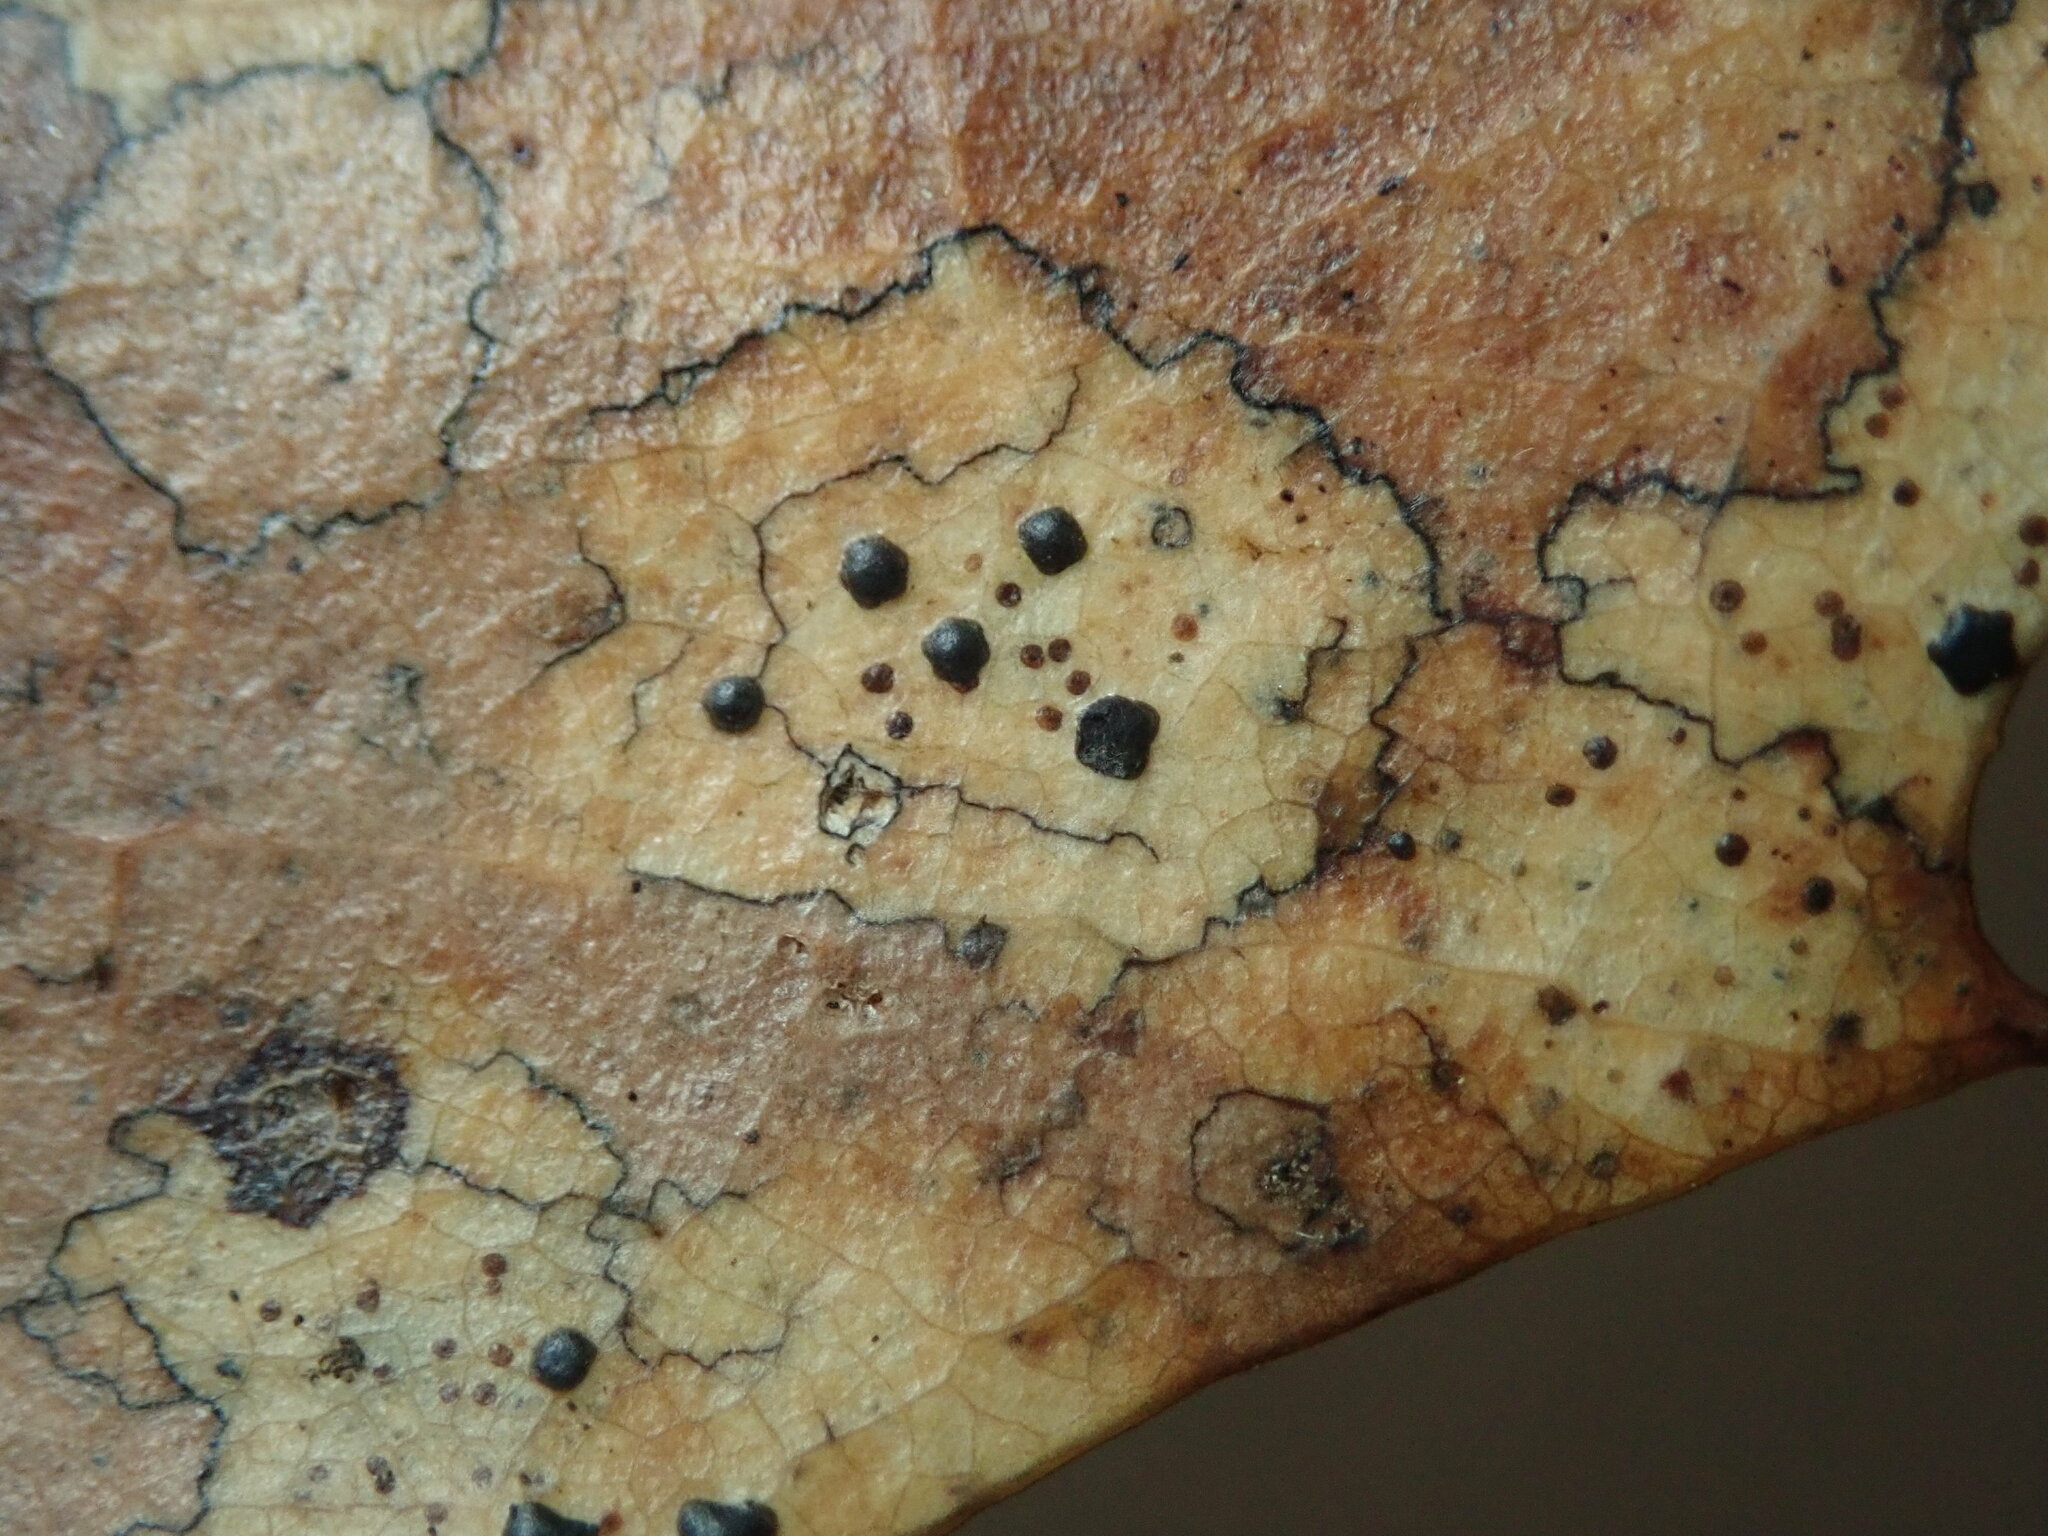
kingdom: Fungi
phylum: Ascomycota
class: Leotiomycetes
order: Rhytismatales
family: Rhytismataceae
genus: Coccomyces
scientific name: Coccomyces dentatus
